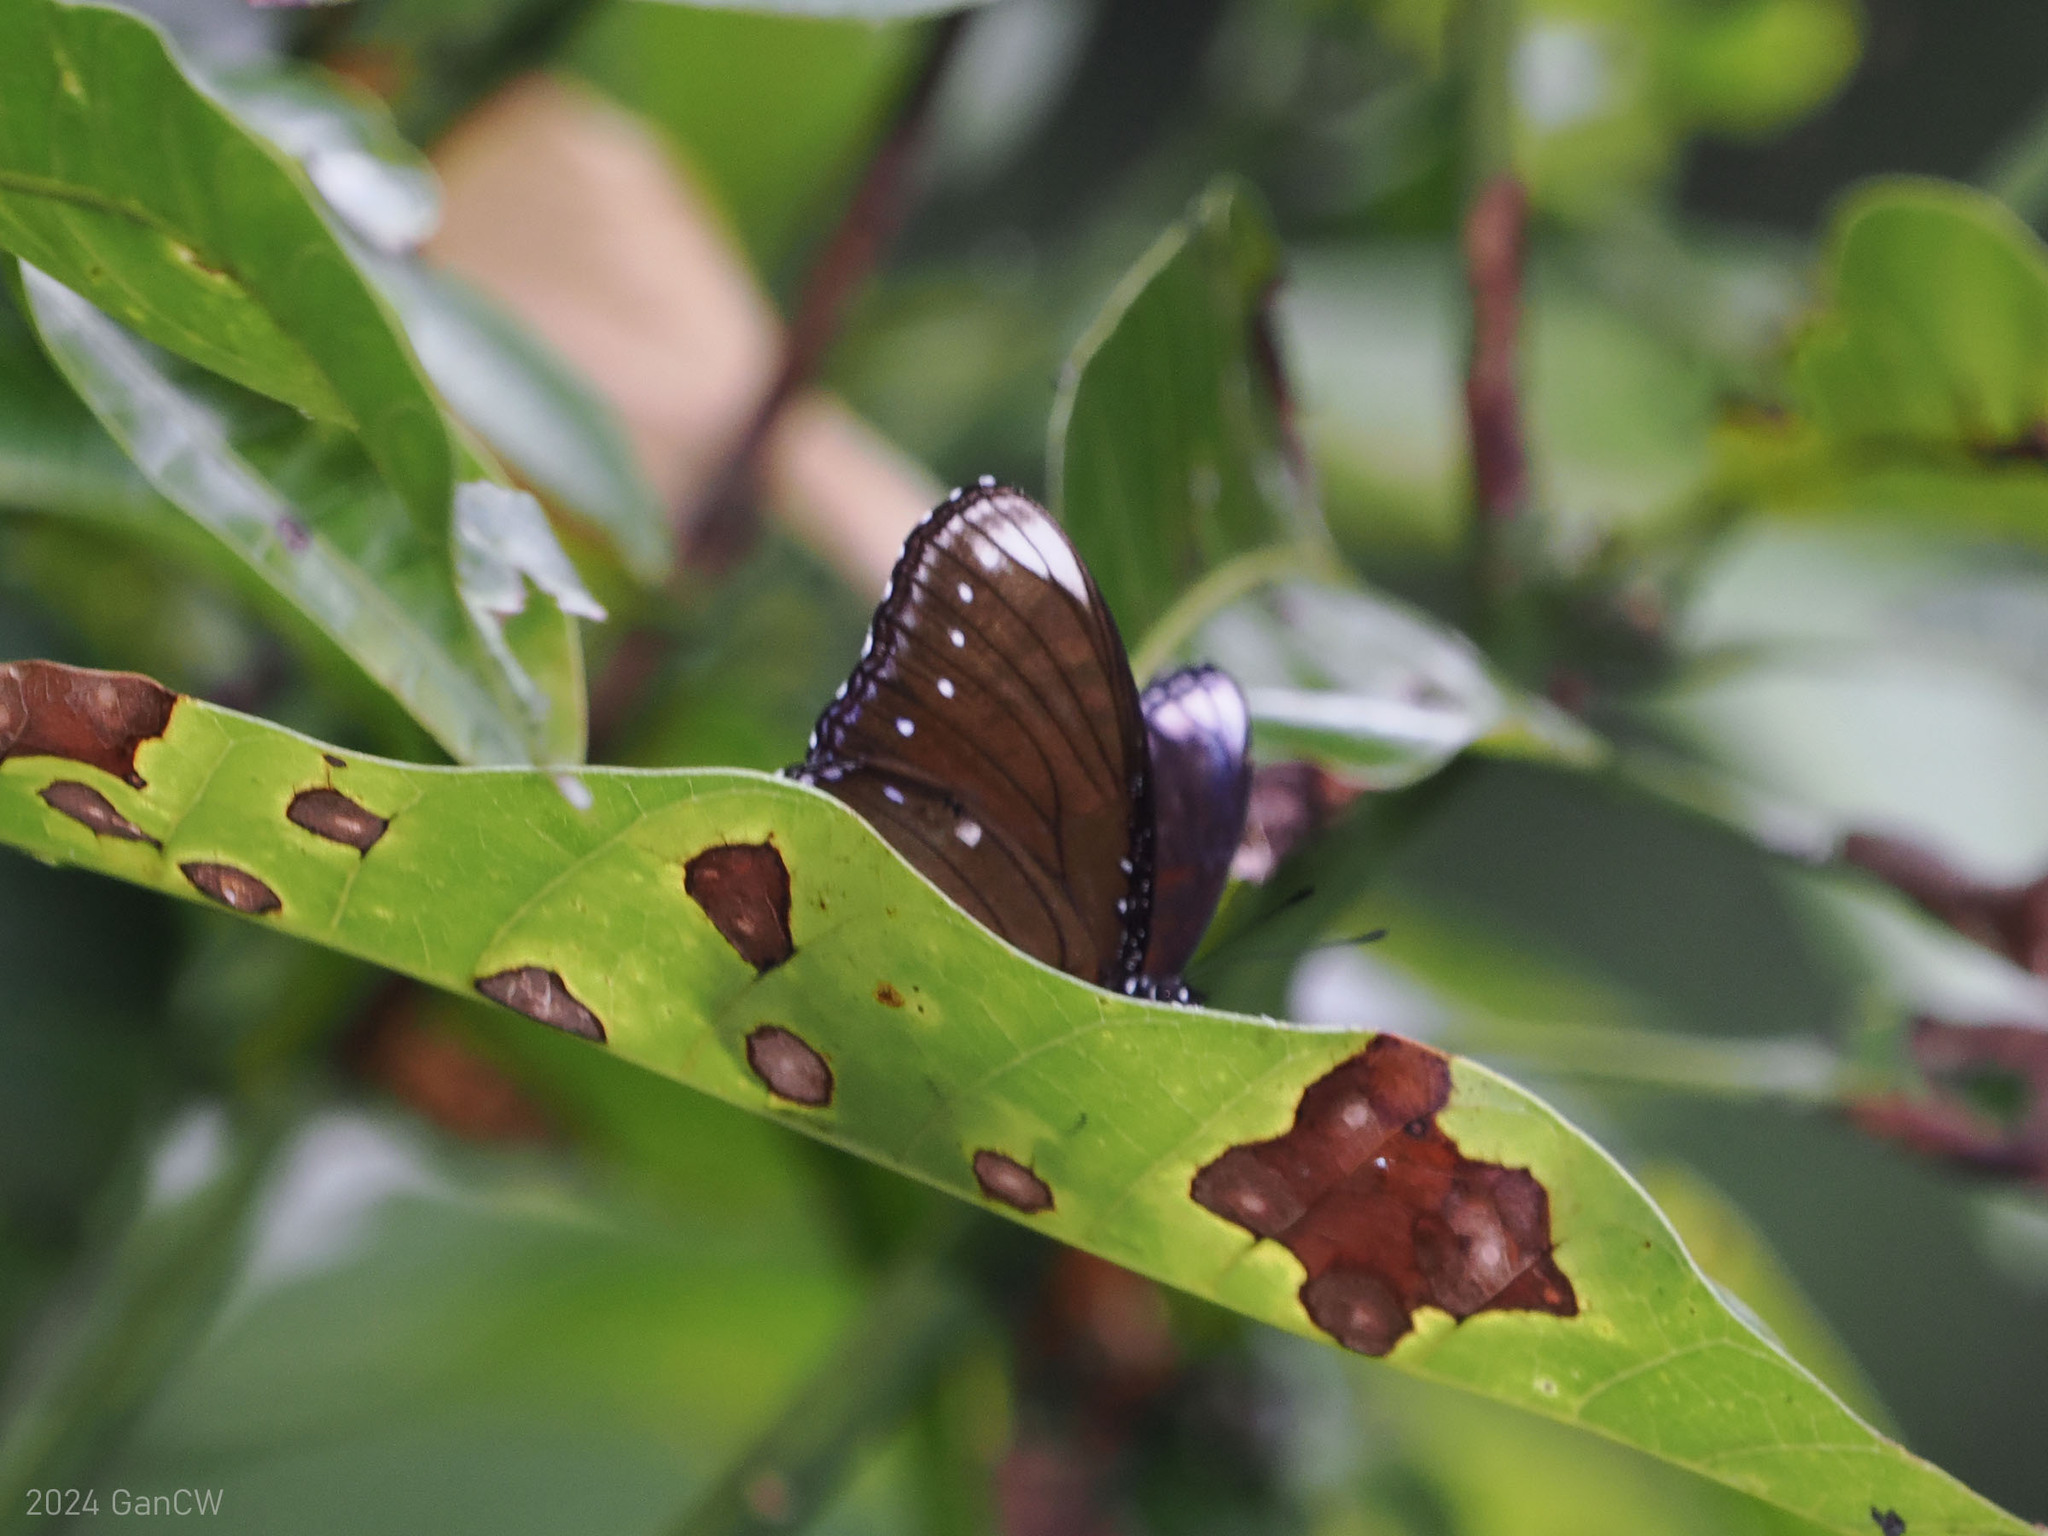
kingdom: Animalia
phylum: Arthropoda
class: Insecta
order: Lepidoptera
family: Nymphalidae
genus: Hypolimnas
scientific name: Hypolimnas anomala
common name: Malayan eggfly
